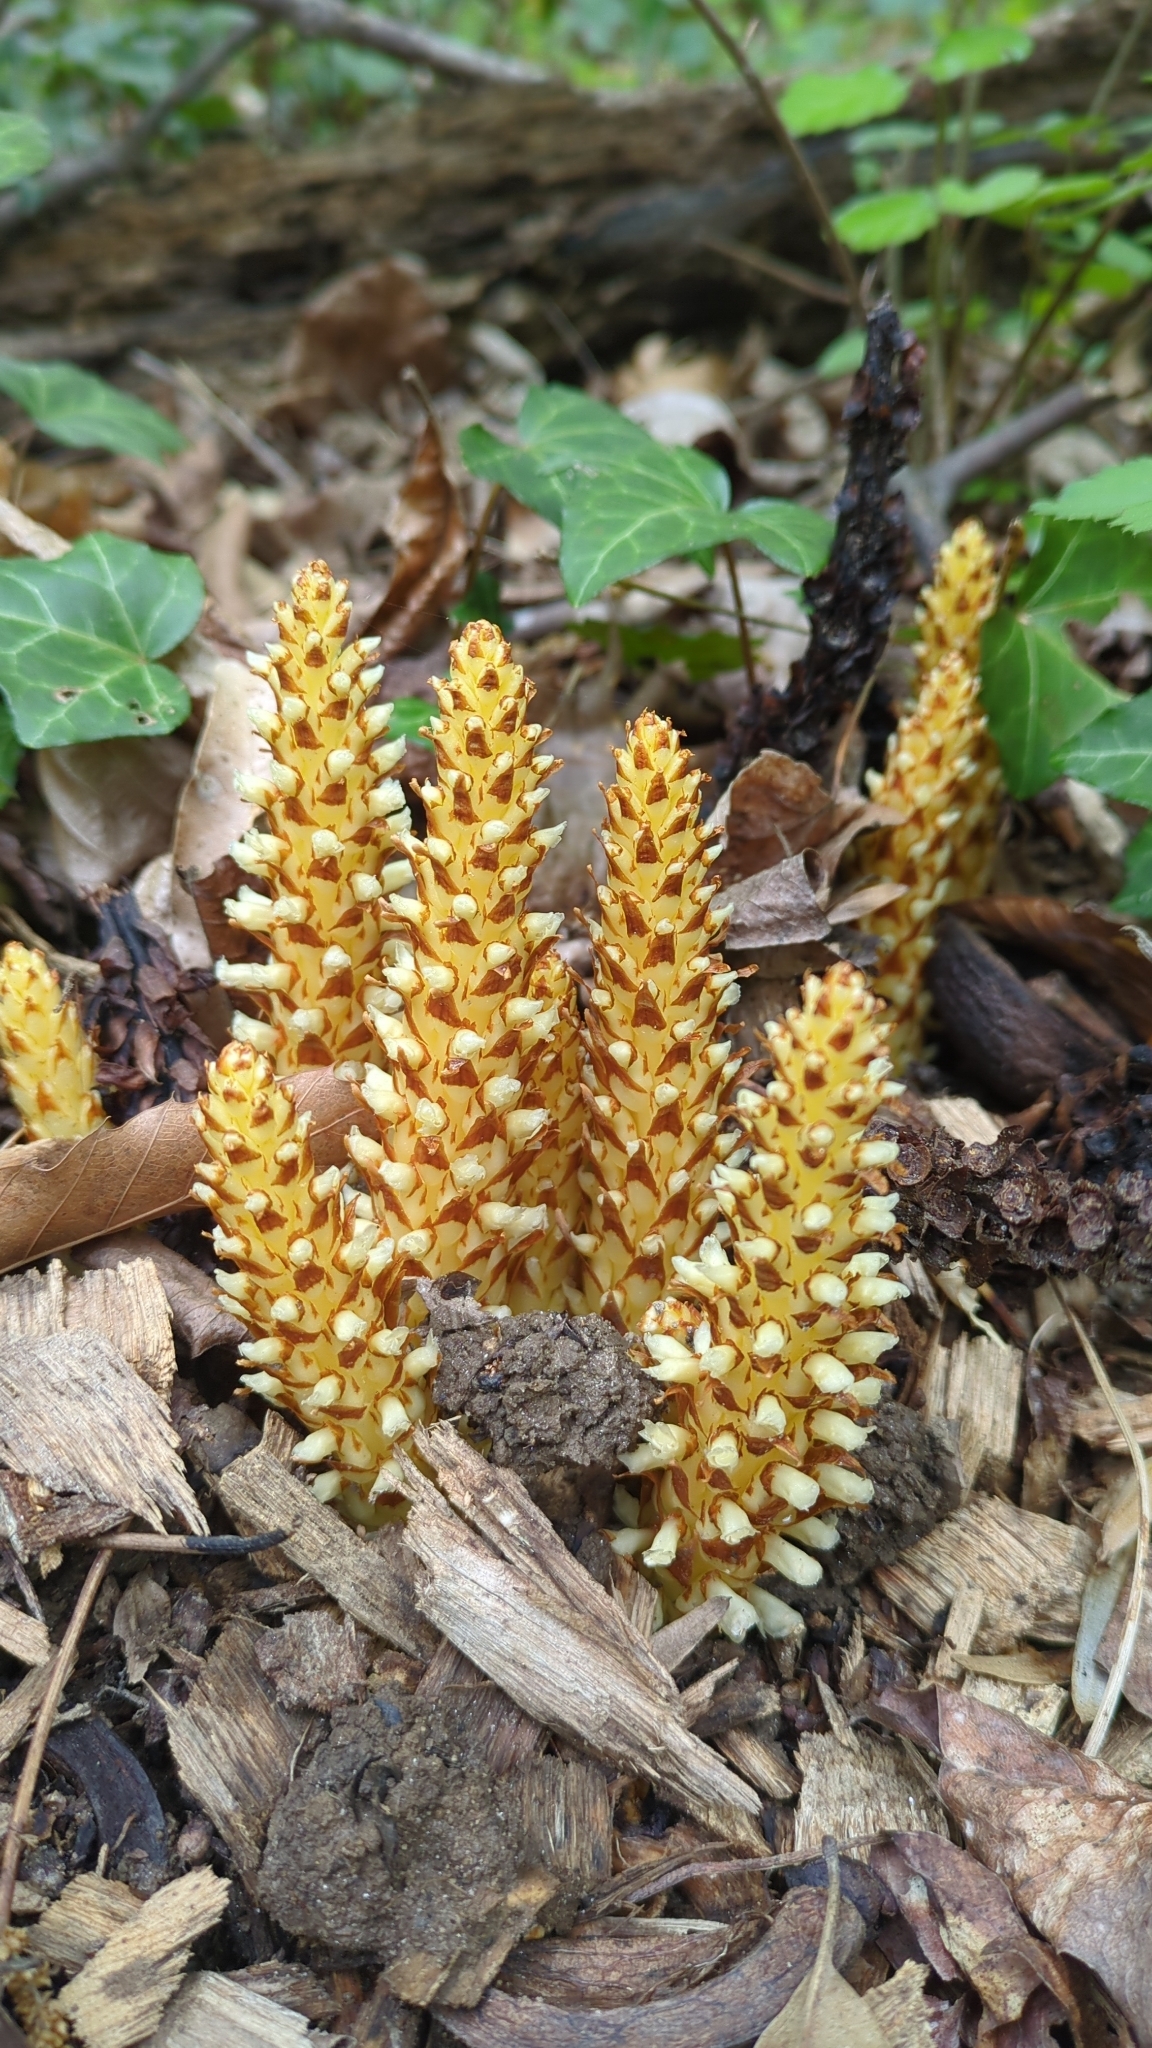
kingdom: Plantae
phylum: Tracheophyta
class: Magnoliopsida
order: Lamiales
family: Orobanchaceae
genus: Conopholis
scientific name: Conopholis americana
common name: American cancer-root
